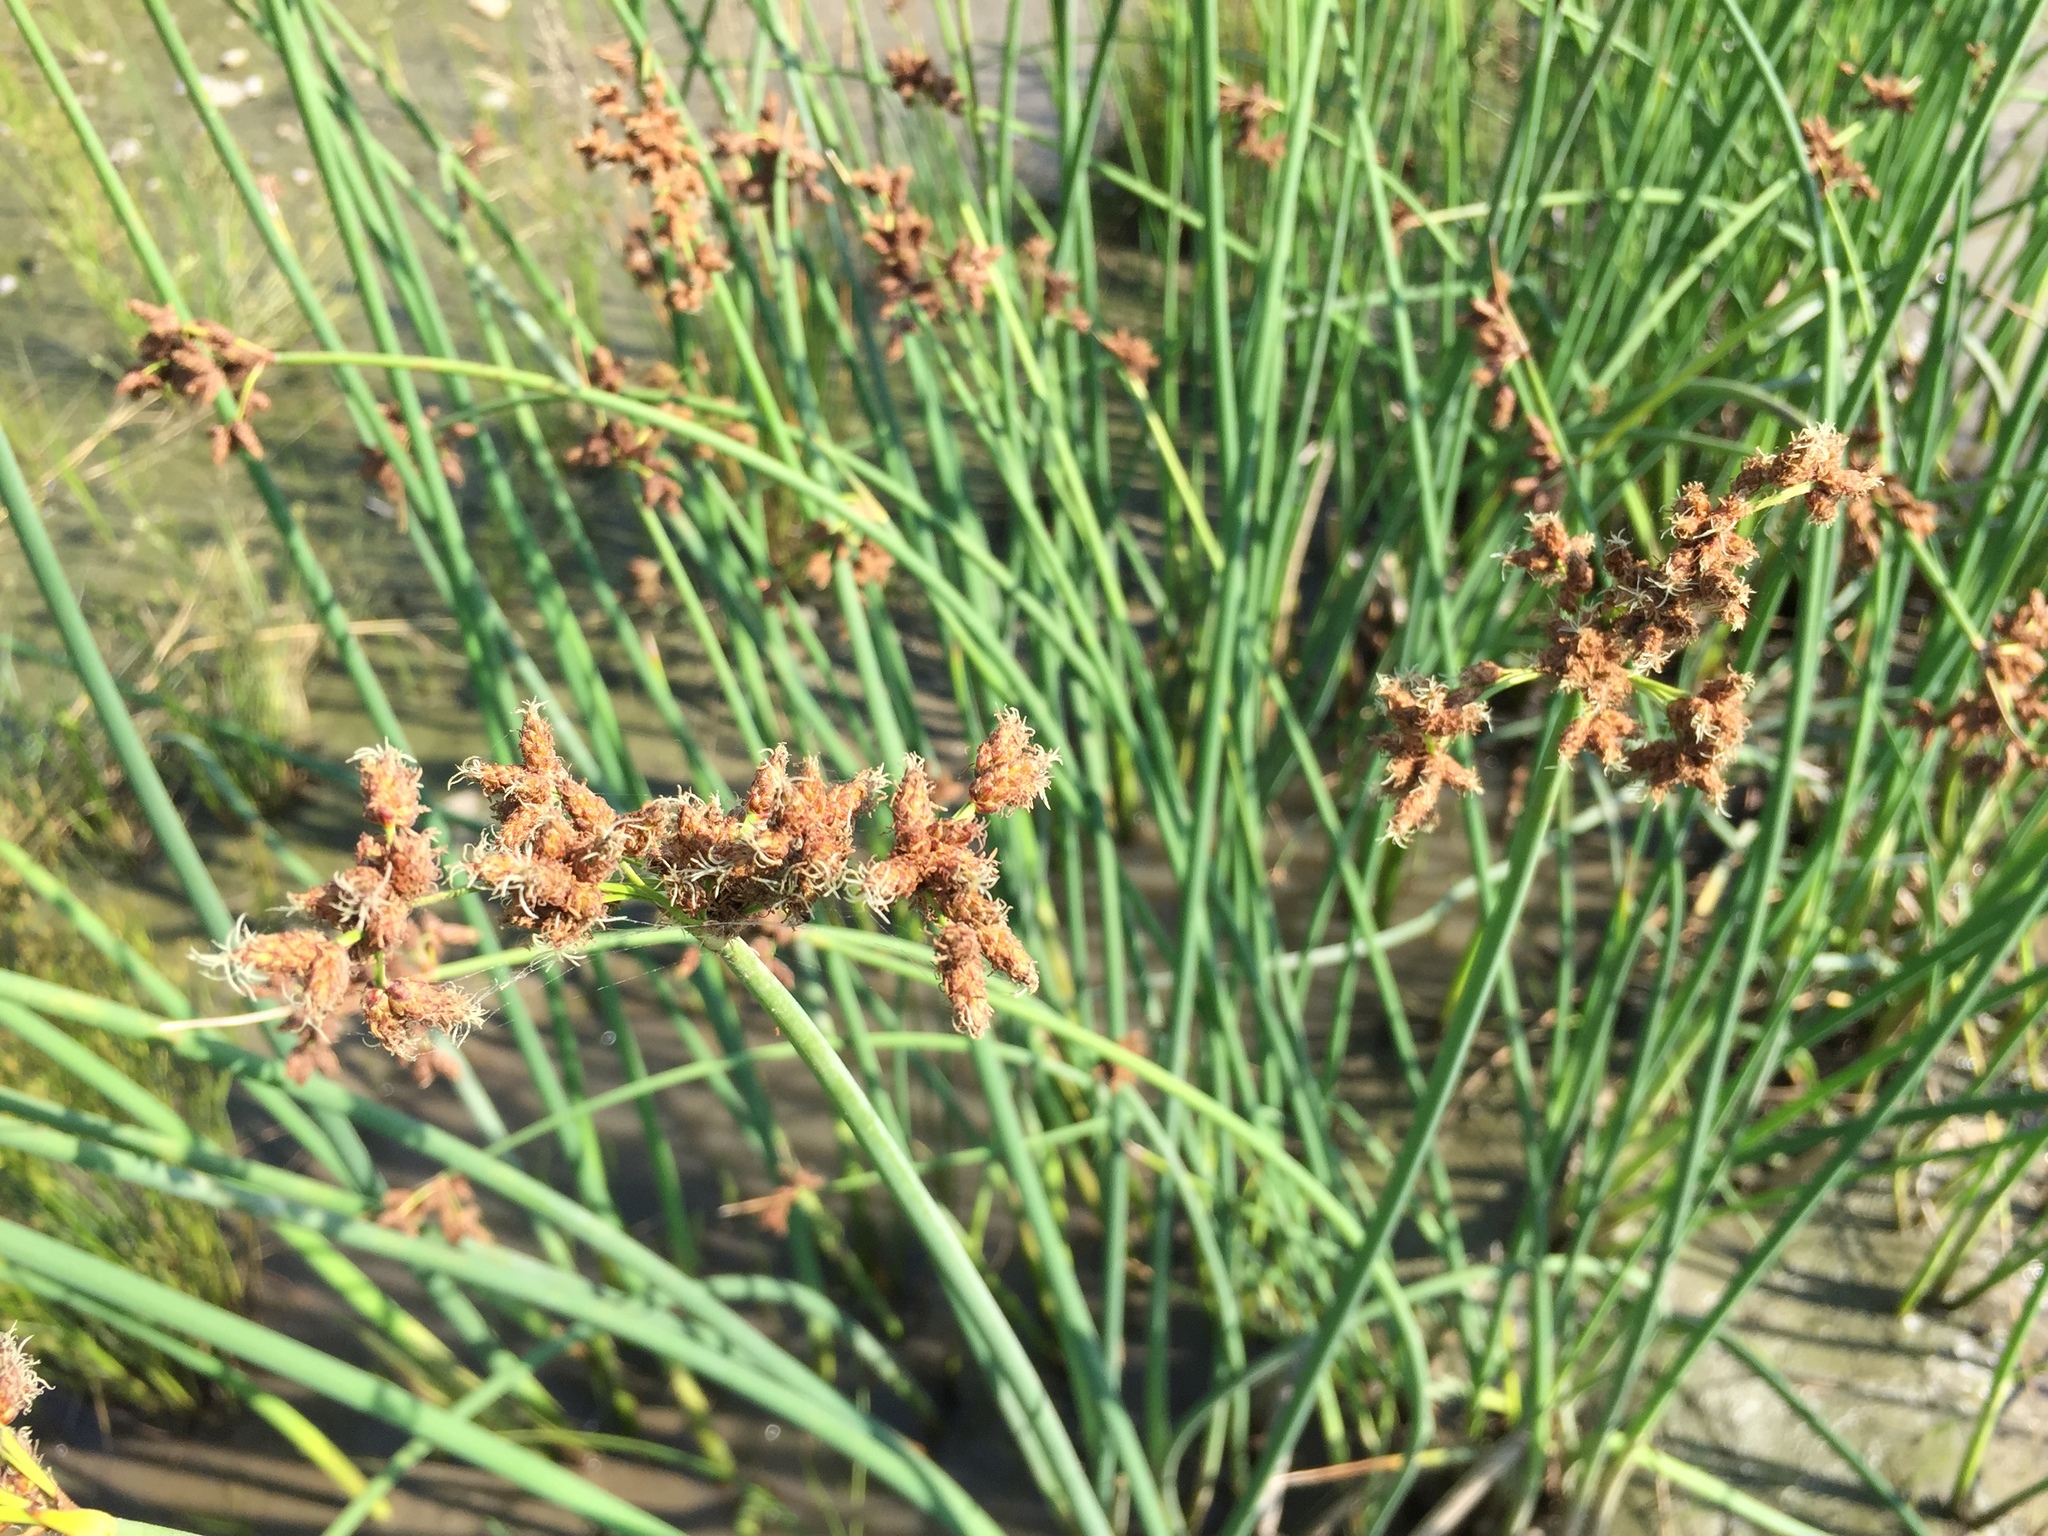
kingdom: Plantae
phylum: Tracheophyta
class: Liliopsida
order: Poales
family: Cyperaceae
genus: Schoenoplectus
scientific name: Schoenoplectus tabernaemontani
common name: Grey club-rush
